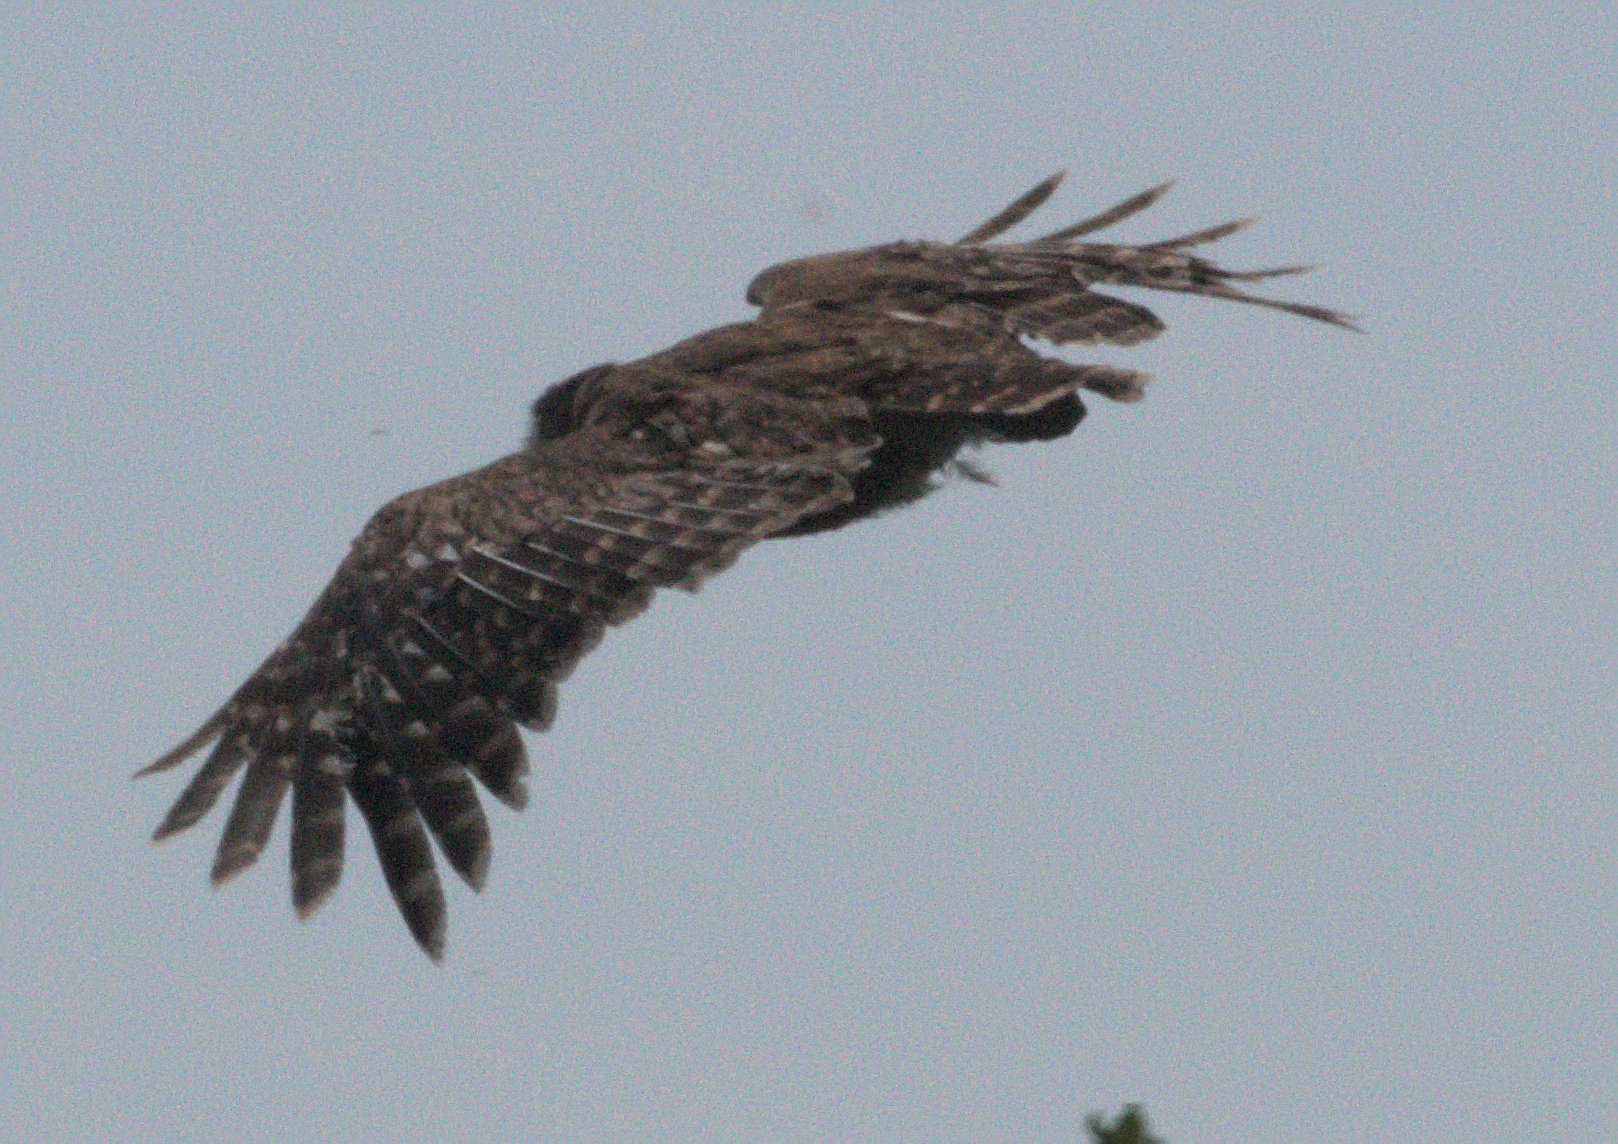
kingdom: Animalia
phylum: Chordata
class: Aves
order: Strigiformes
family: Strigidae
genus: Ketupa
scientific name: Ketupa zeylonensis
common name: Brown fish owl
